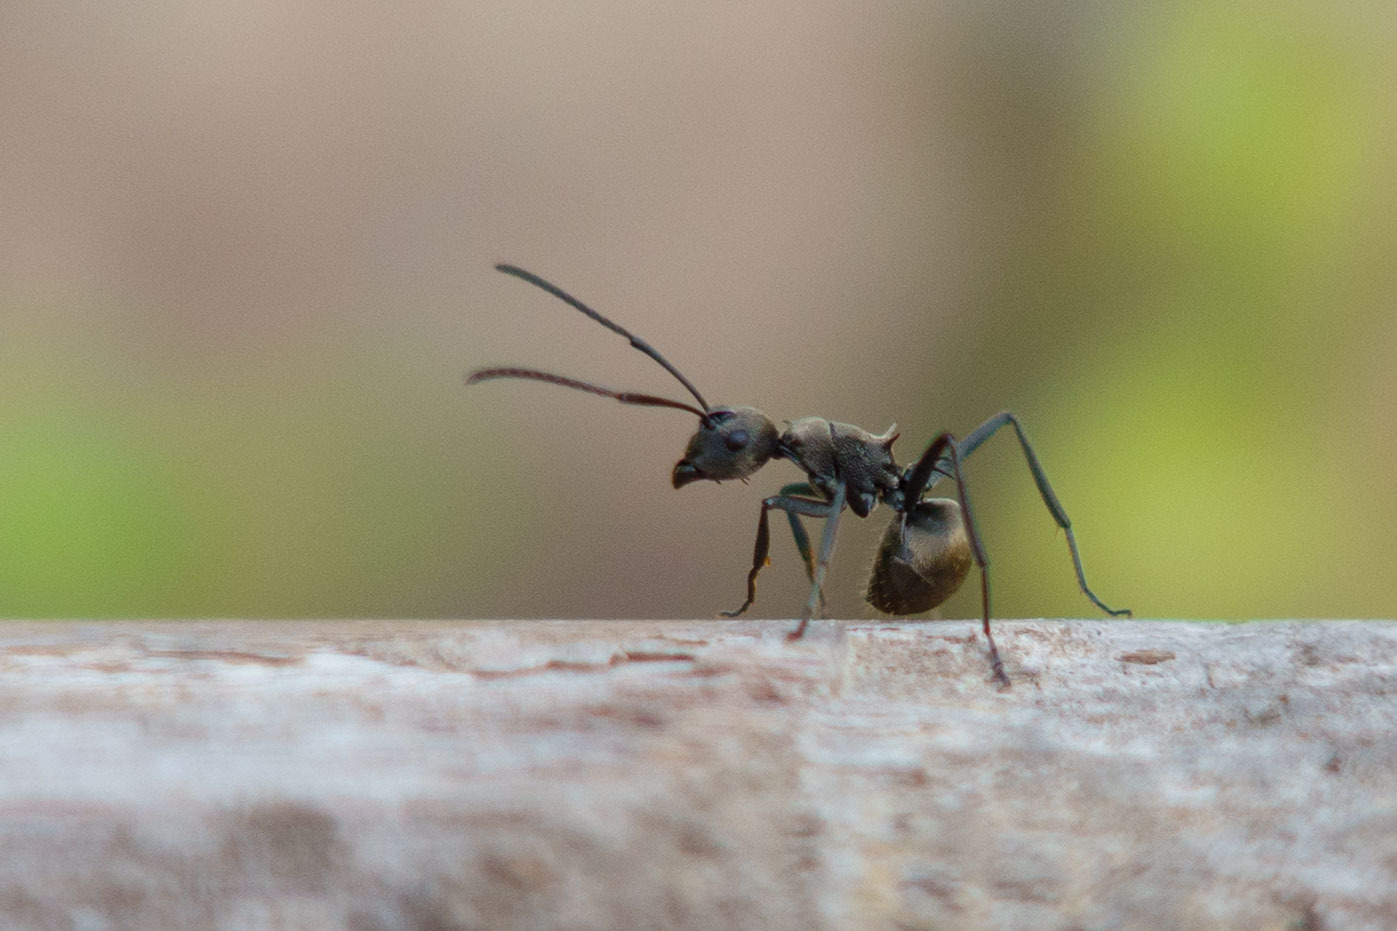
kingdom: Animalia
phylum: Arthropoda
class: Insecta
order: Hymenoptera
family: Formicidae
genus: Polyrhachis
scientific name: Polyrhachis dives
